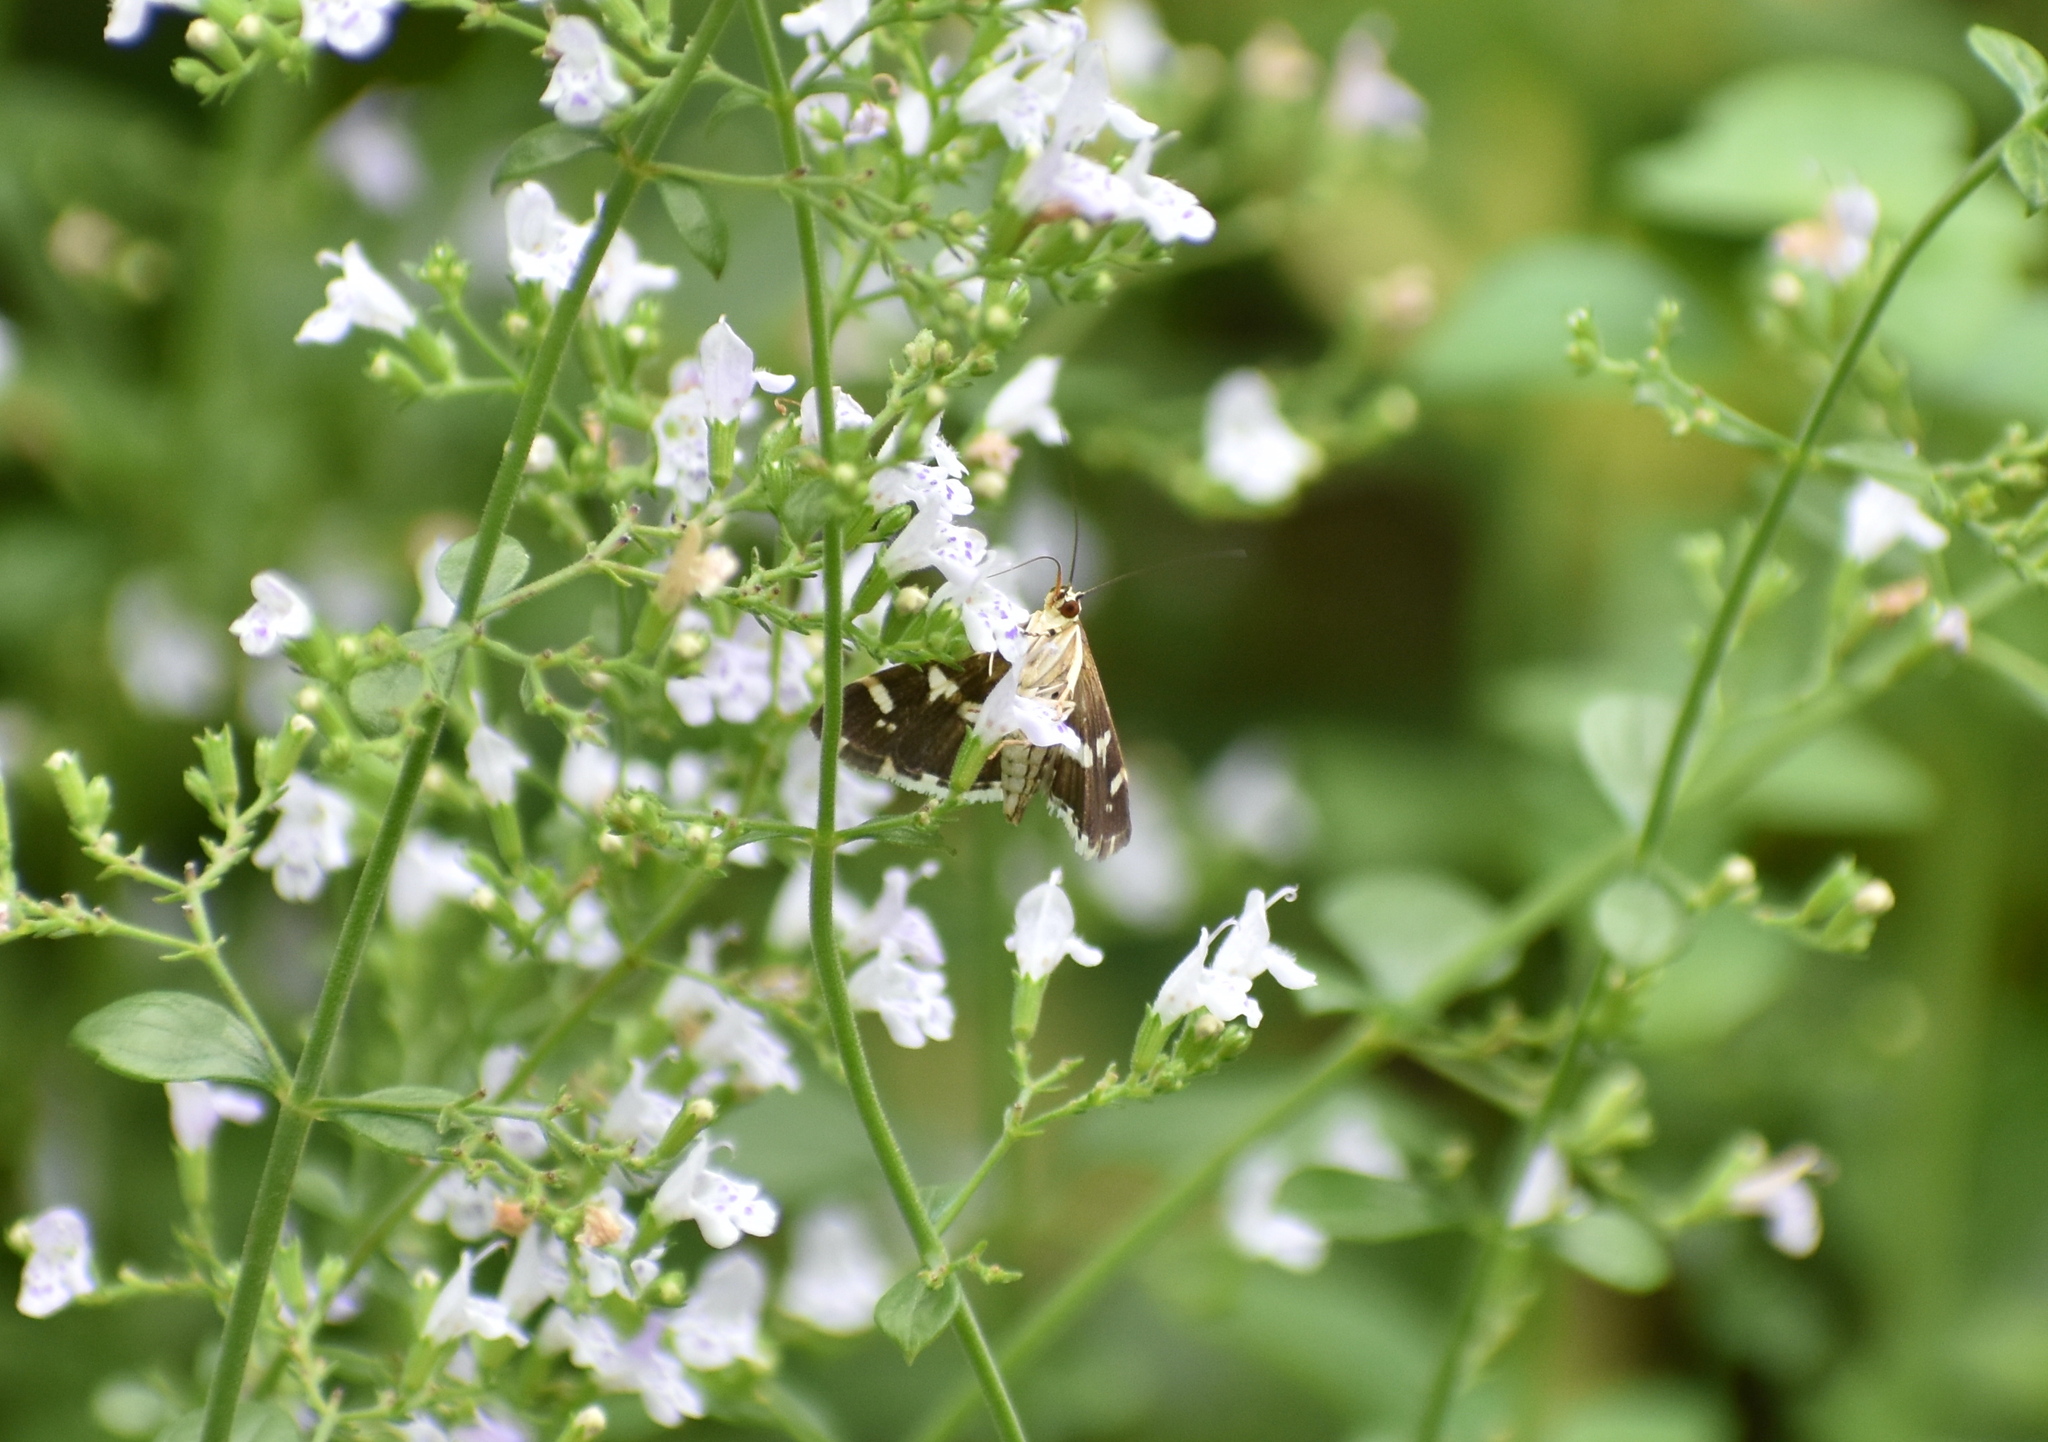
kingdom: Animalia
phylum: Arthropoda
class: Insecta
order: Lepidoptera
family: Crambidae
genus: Spoladea
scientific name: Spoladea recurvalis
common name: Beet webworm moth
